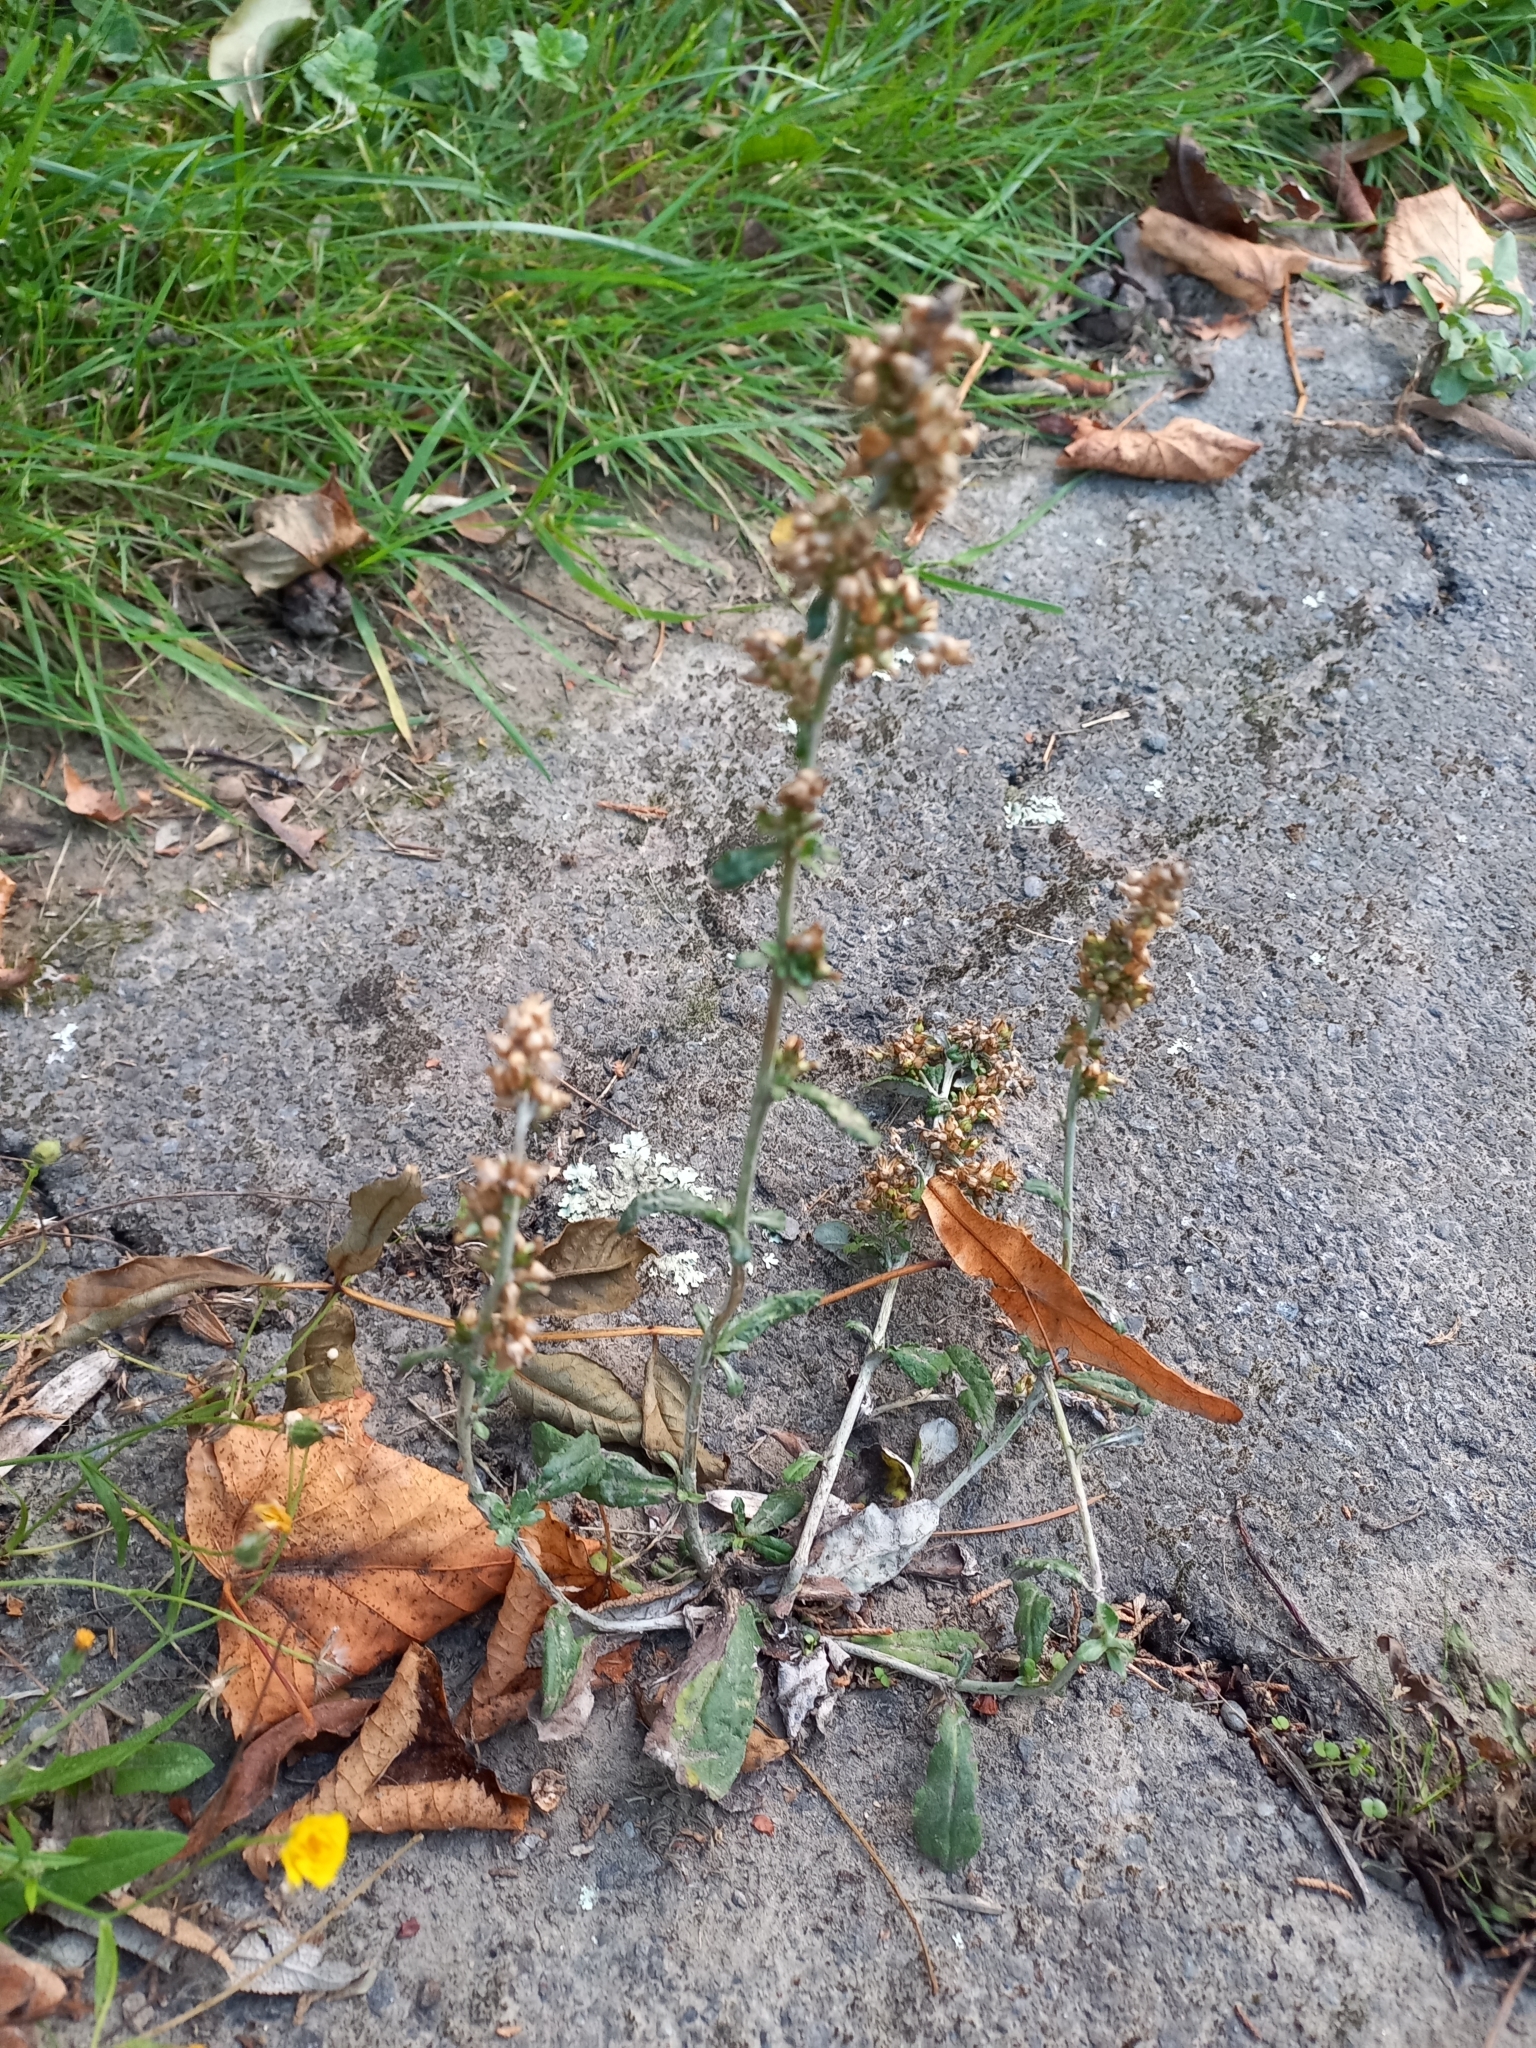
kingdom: Plantae
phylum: Tracheophyta
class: Magnoliopsida
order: Asterales
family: Asteraceae
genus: Euchiton
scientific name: Euchiton involucratus
